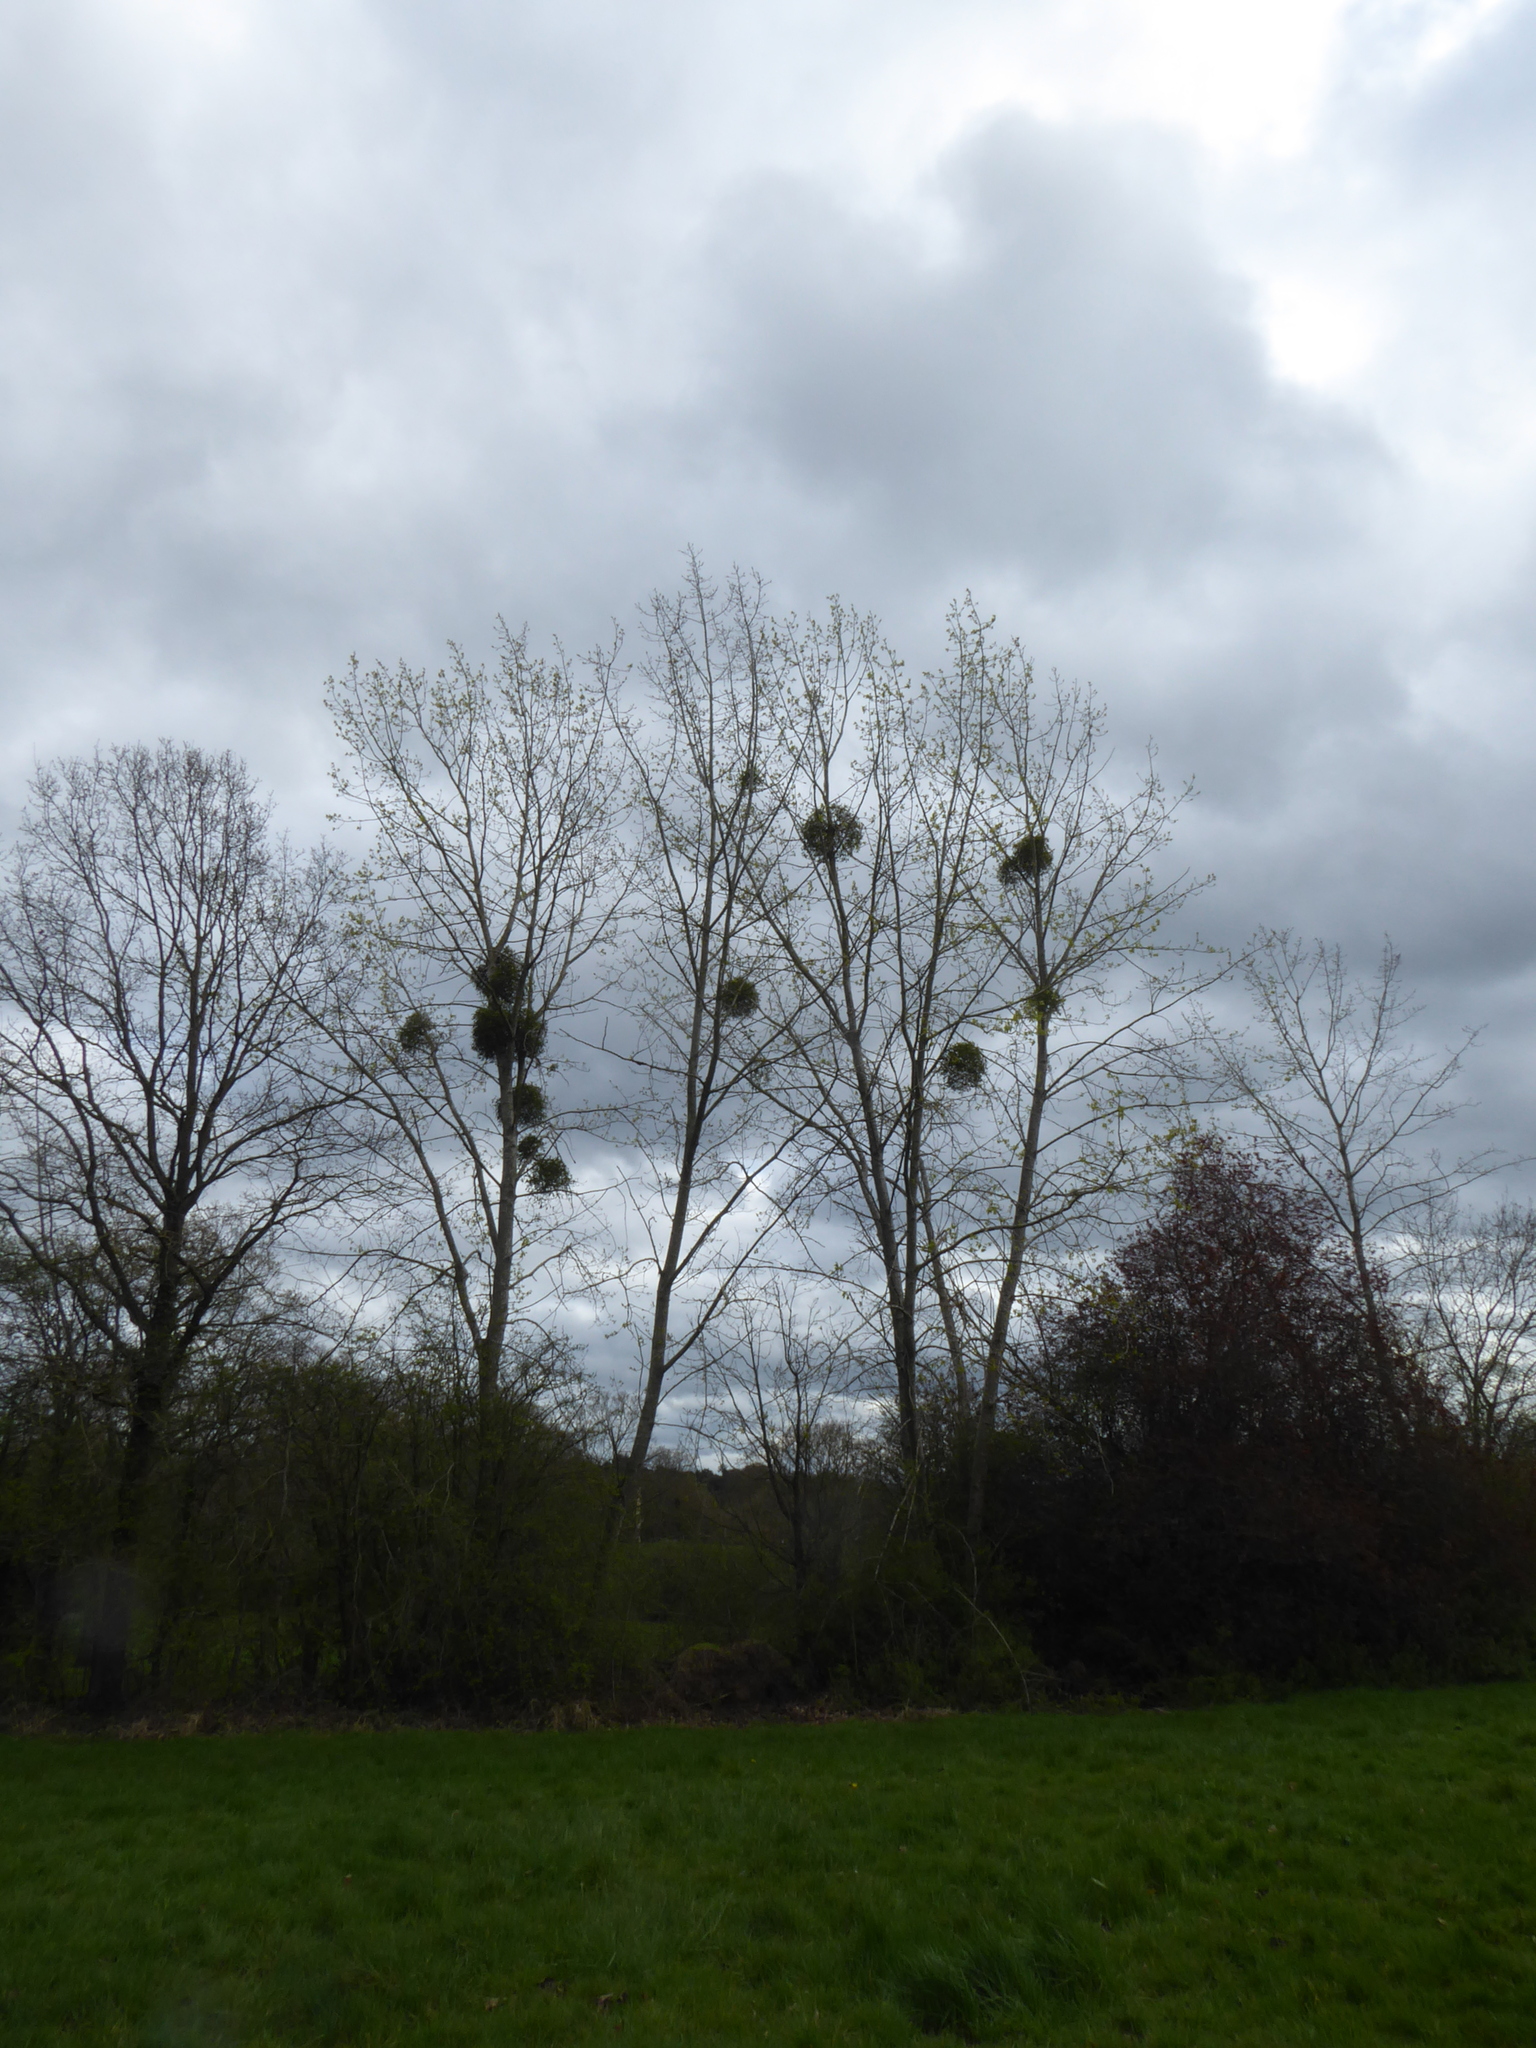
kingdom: Plantae
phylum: Tracheophyta
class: Magnoliopsida
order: Santalales
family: Viscaceae
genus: Viscum
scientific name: Viscum album
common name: Mistletoe
